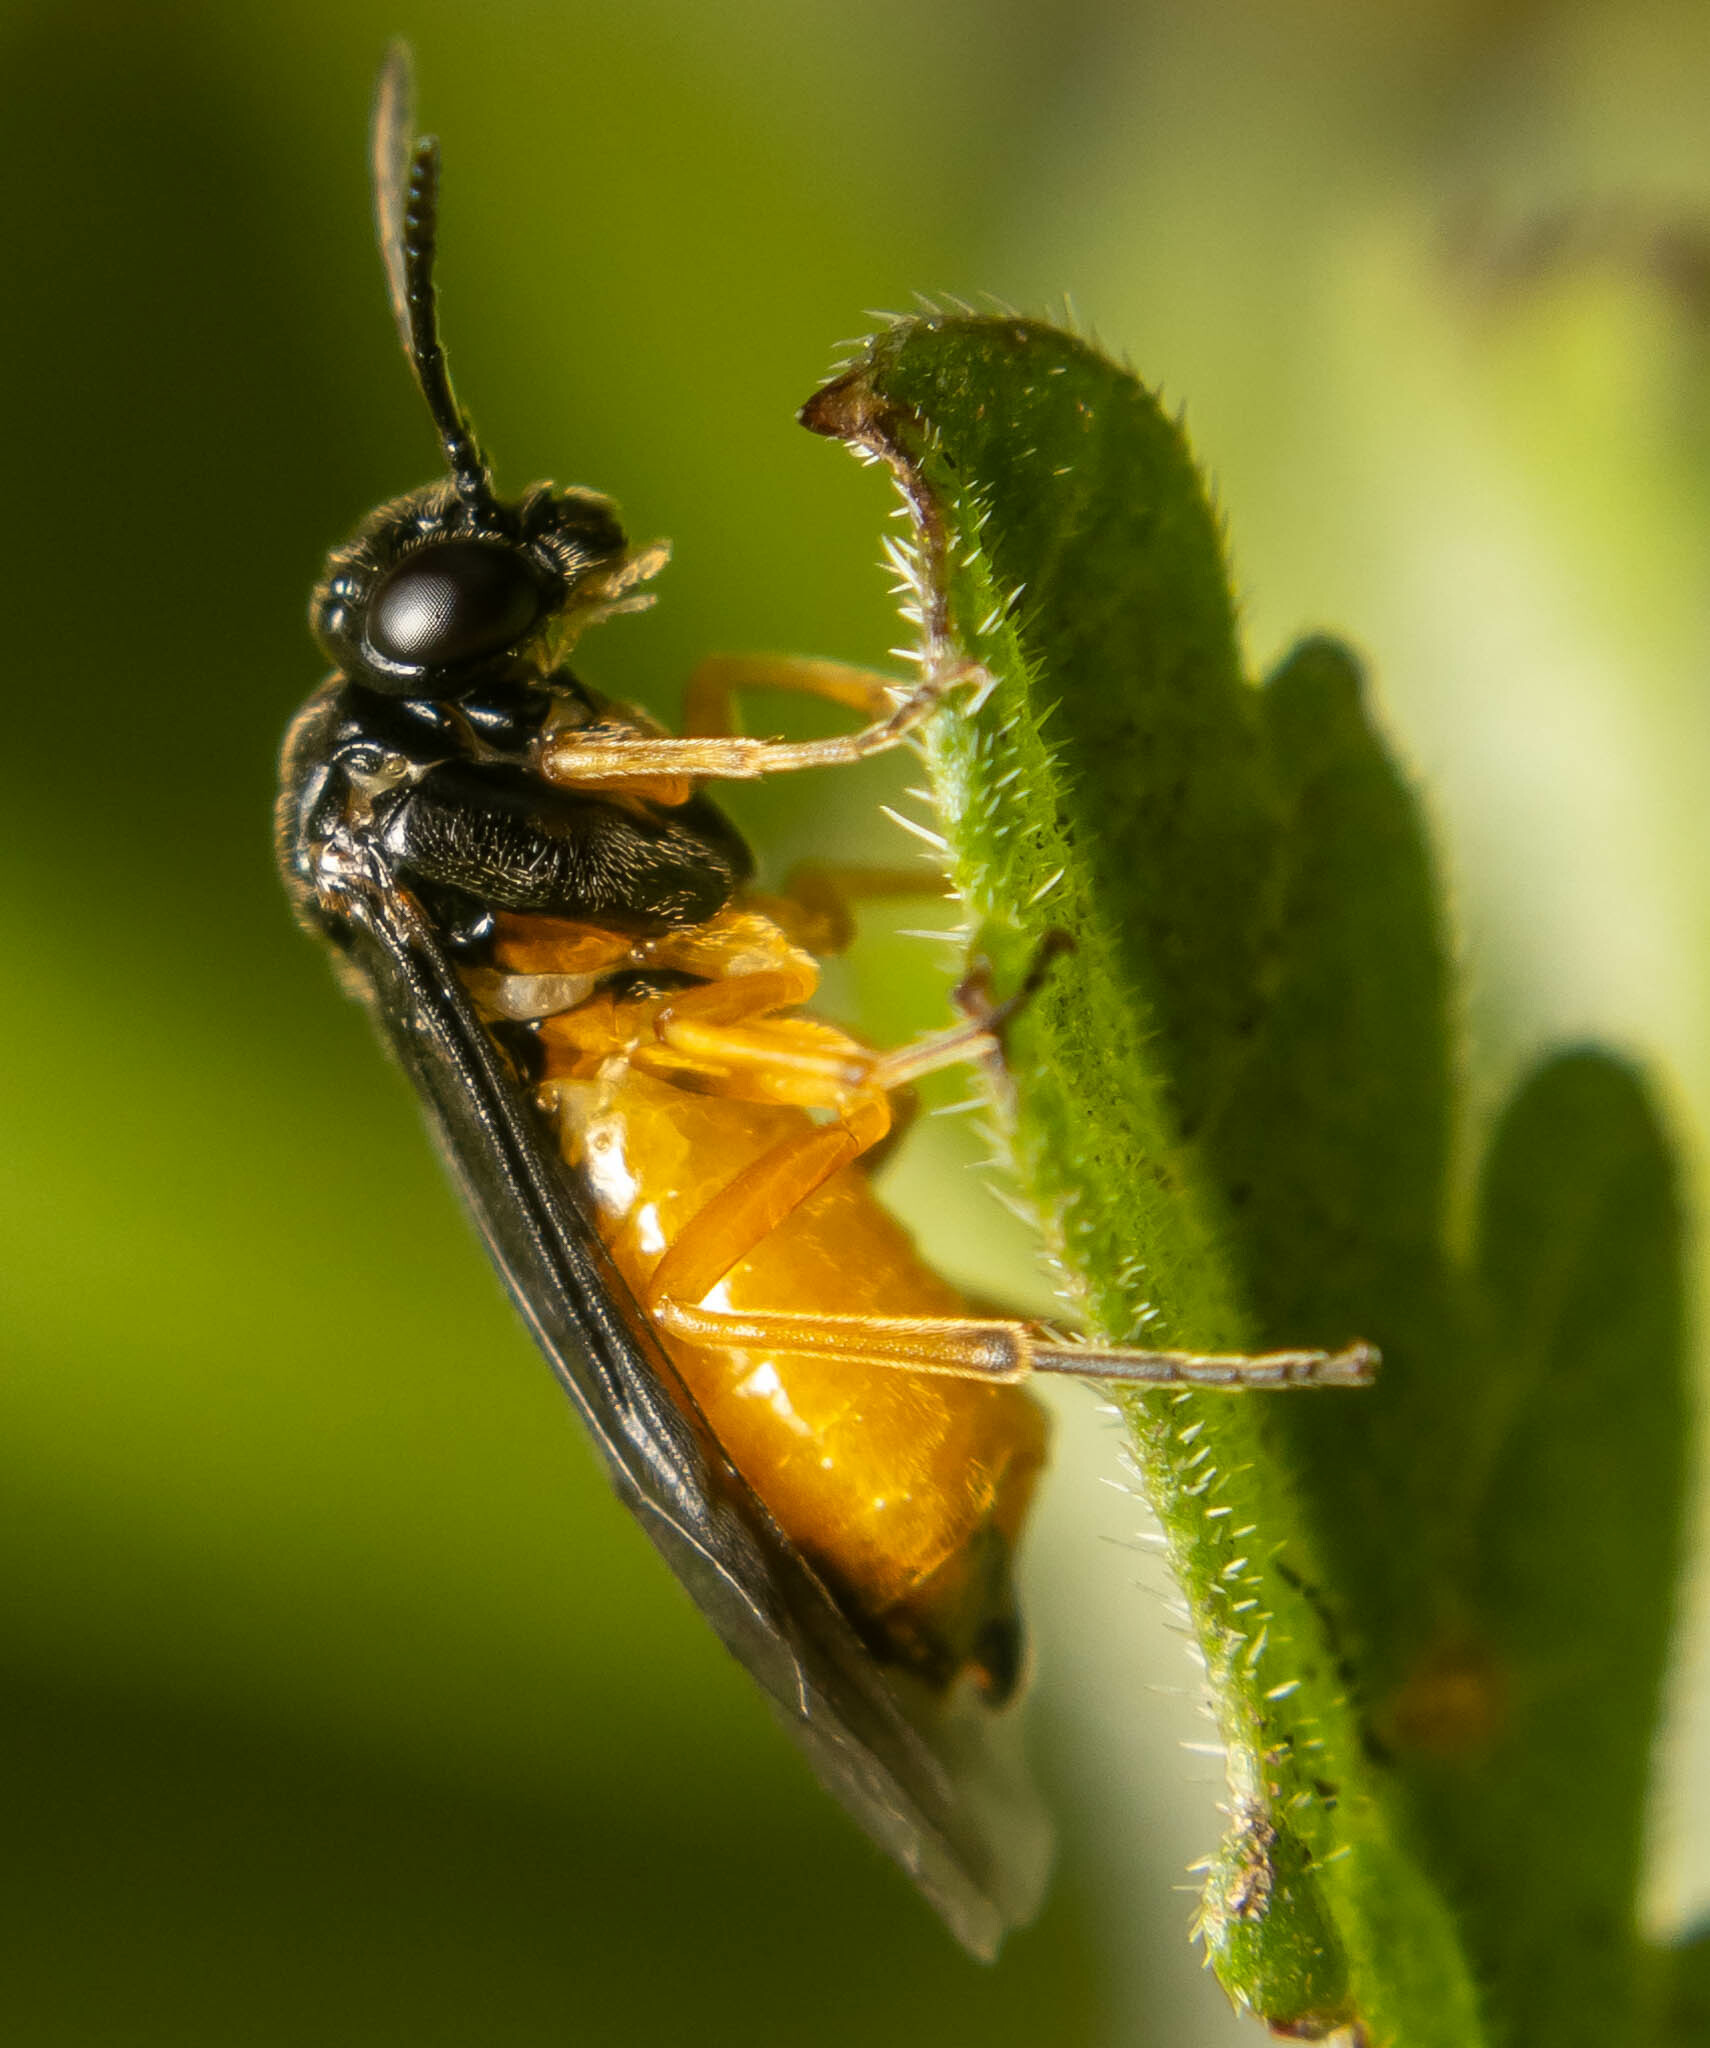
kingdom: Animalia
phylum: Arthropoda
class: Insecta
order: Hymenoptera
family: Tenthredinidae
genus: Halidamia
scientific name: Halidamia affinis
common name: Wasp
